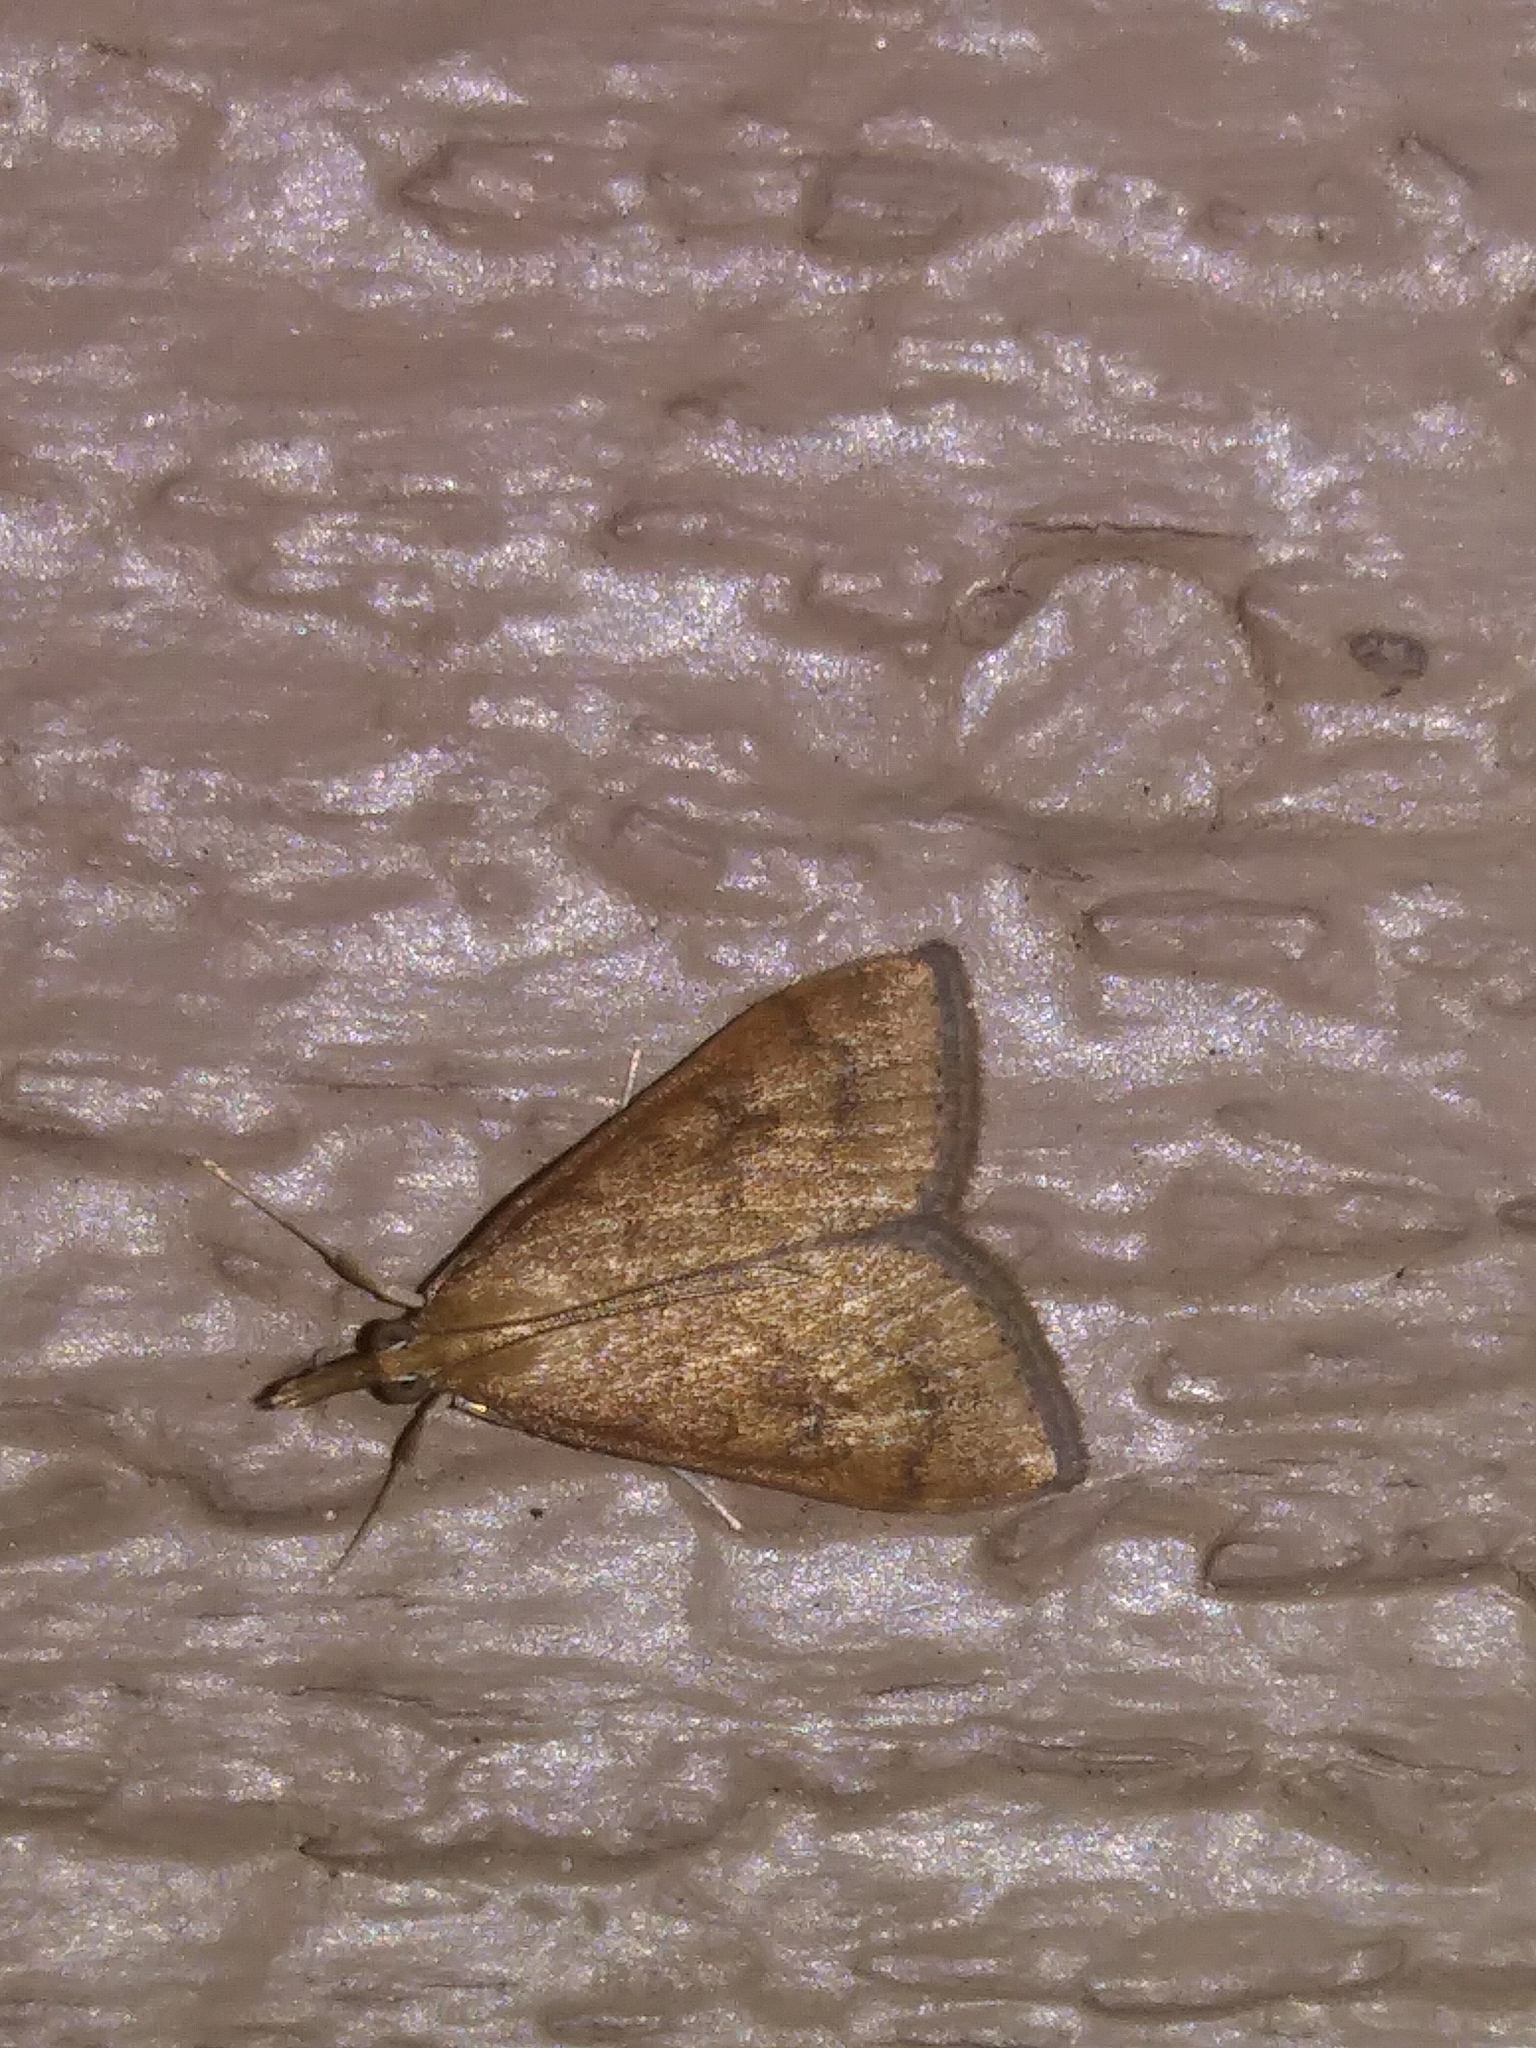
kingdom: Animalia
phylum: Arthropoda
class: Insecta
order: Lepidoptera
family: Crambidae
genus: Udea
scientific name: Udea rubigalis
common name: Celery leaftier moth
